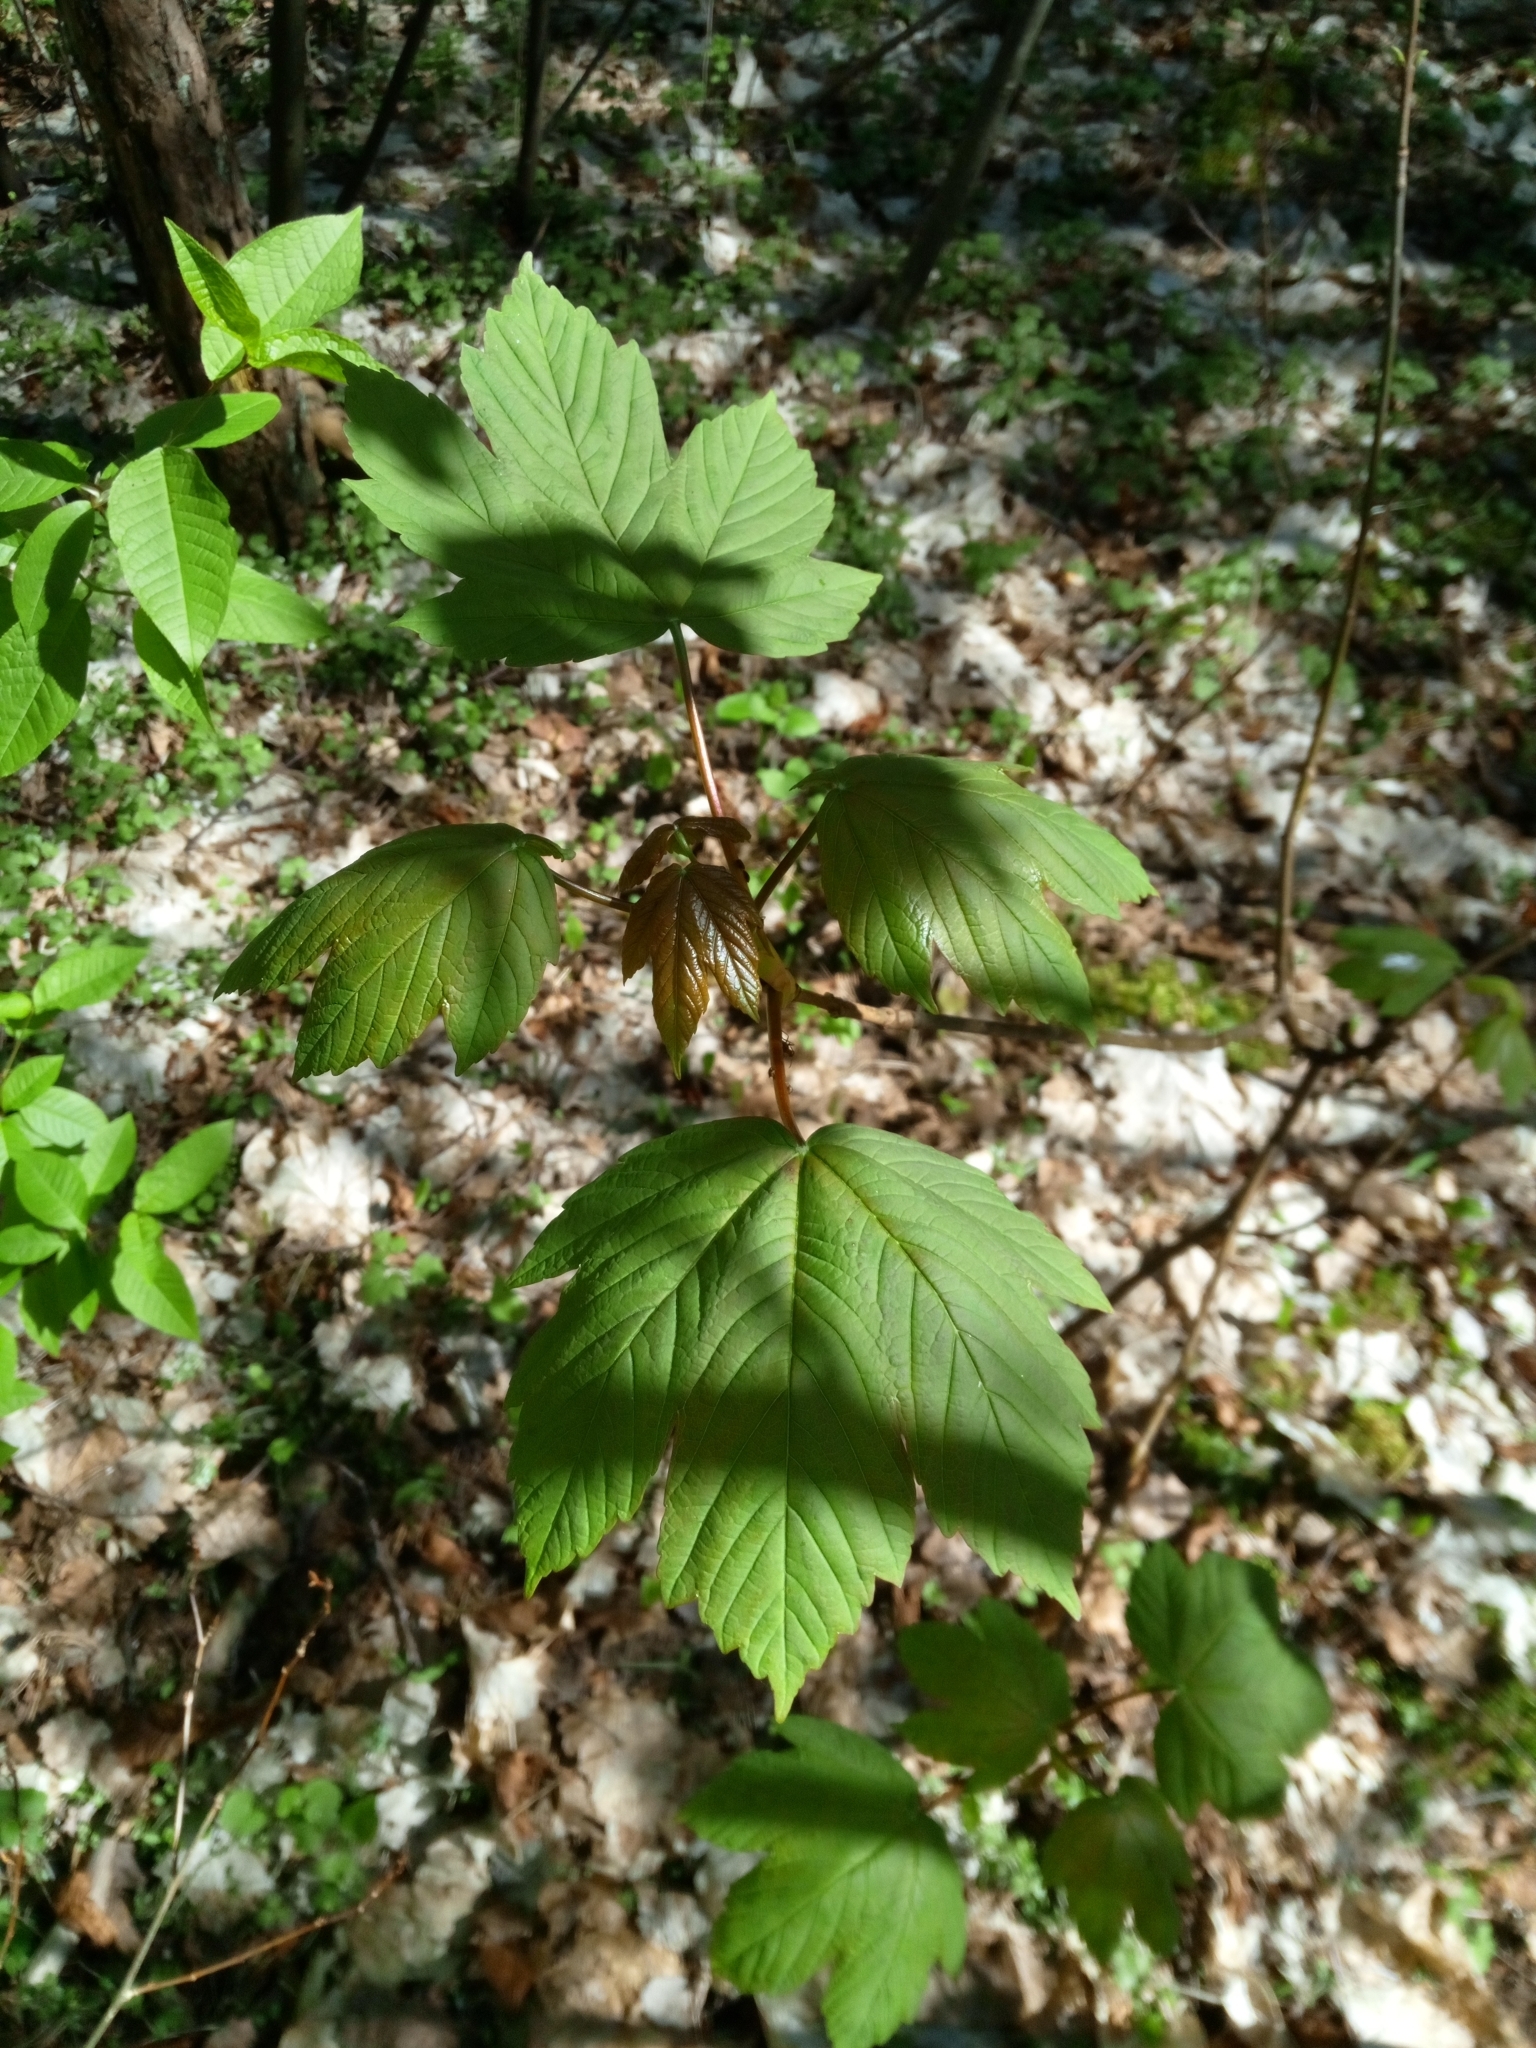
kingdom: Plantae
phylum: Tracheophyta
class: Magnoliopsida
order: Sapindales
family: Sapindaceae
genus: Acer
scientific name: Acer pseudoplatanus
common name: Sycamore
